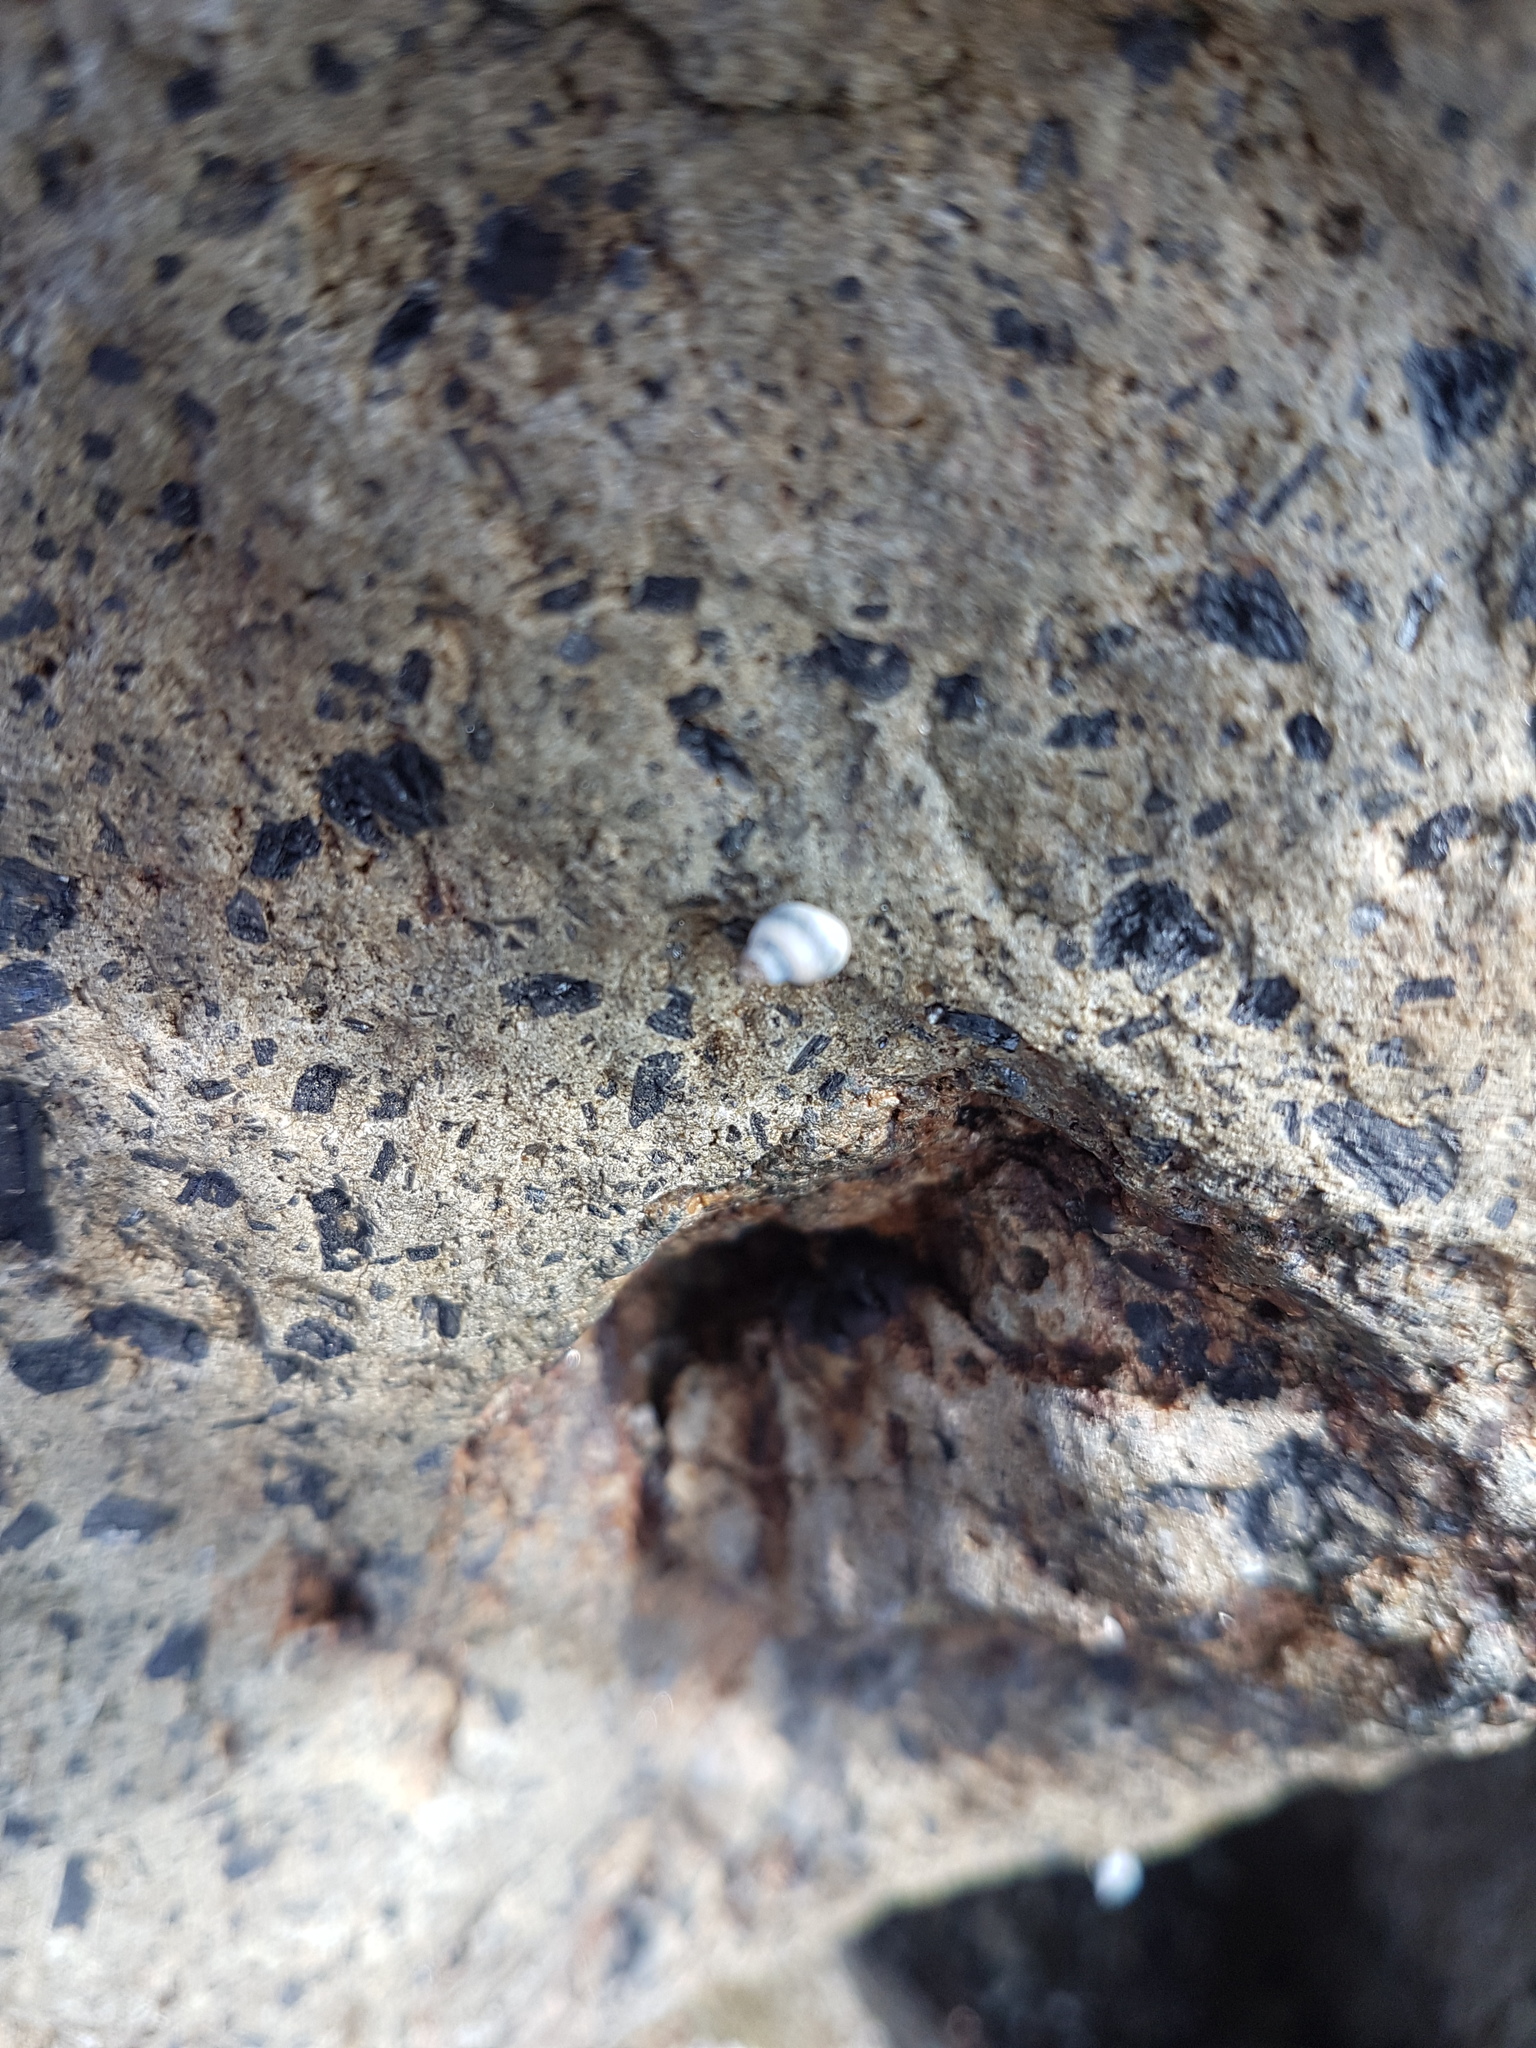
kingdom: Animalia
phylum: Mollusca
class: Gastropoda
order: Littorinimorpha
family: Littorinidae
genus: Austrolittorina
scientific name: Austrolittorina antipodum
